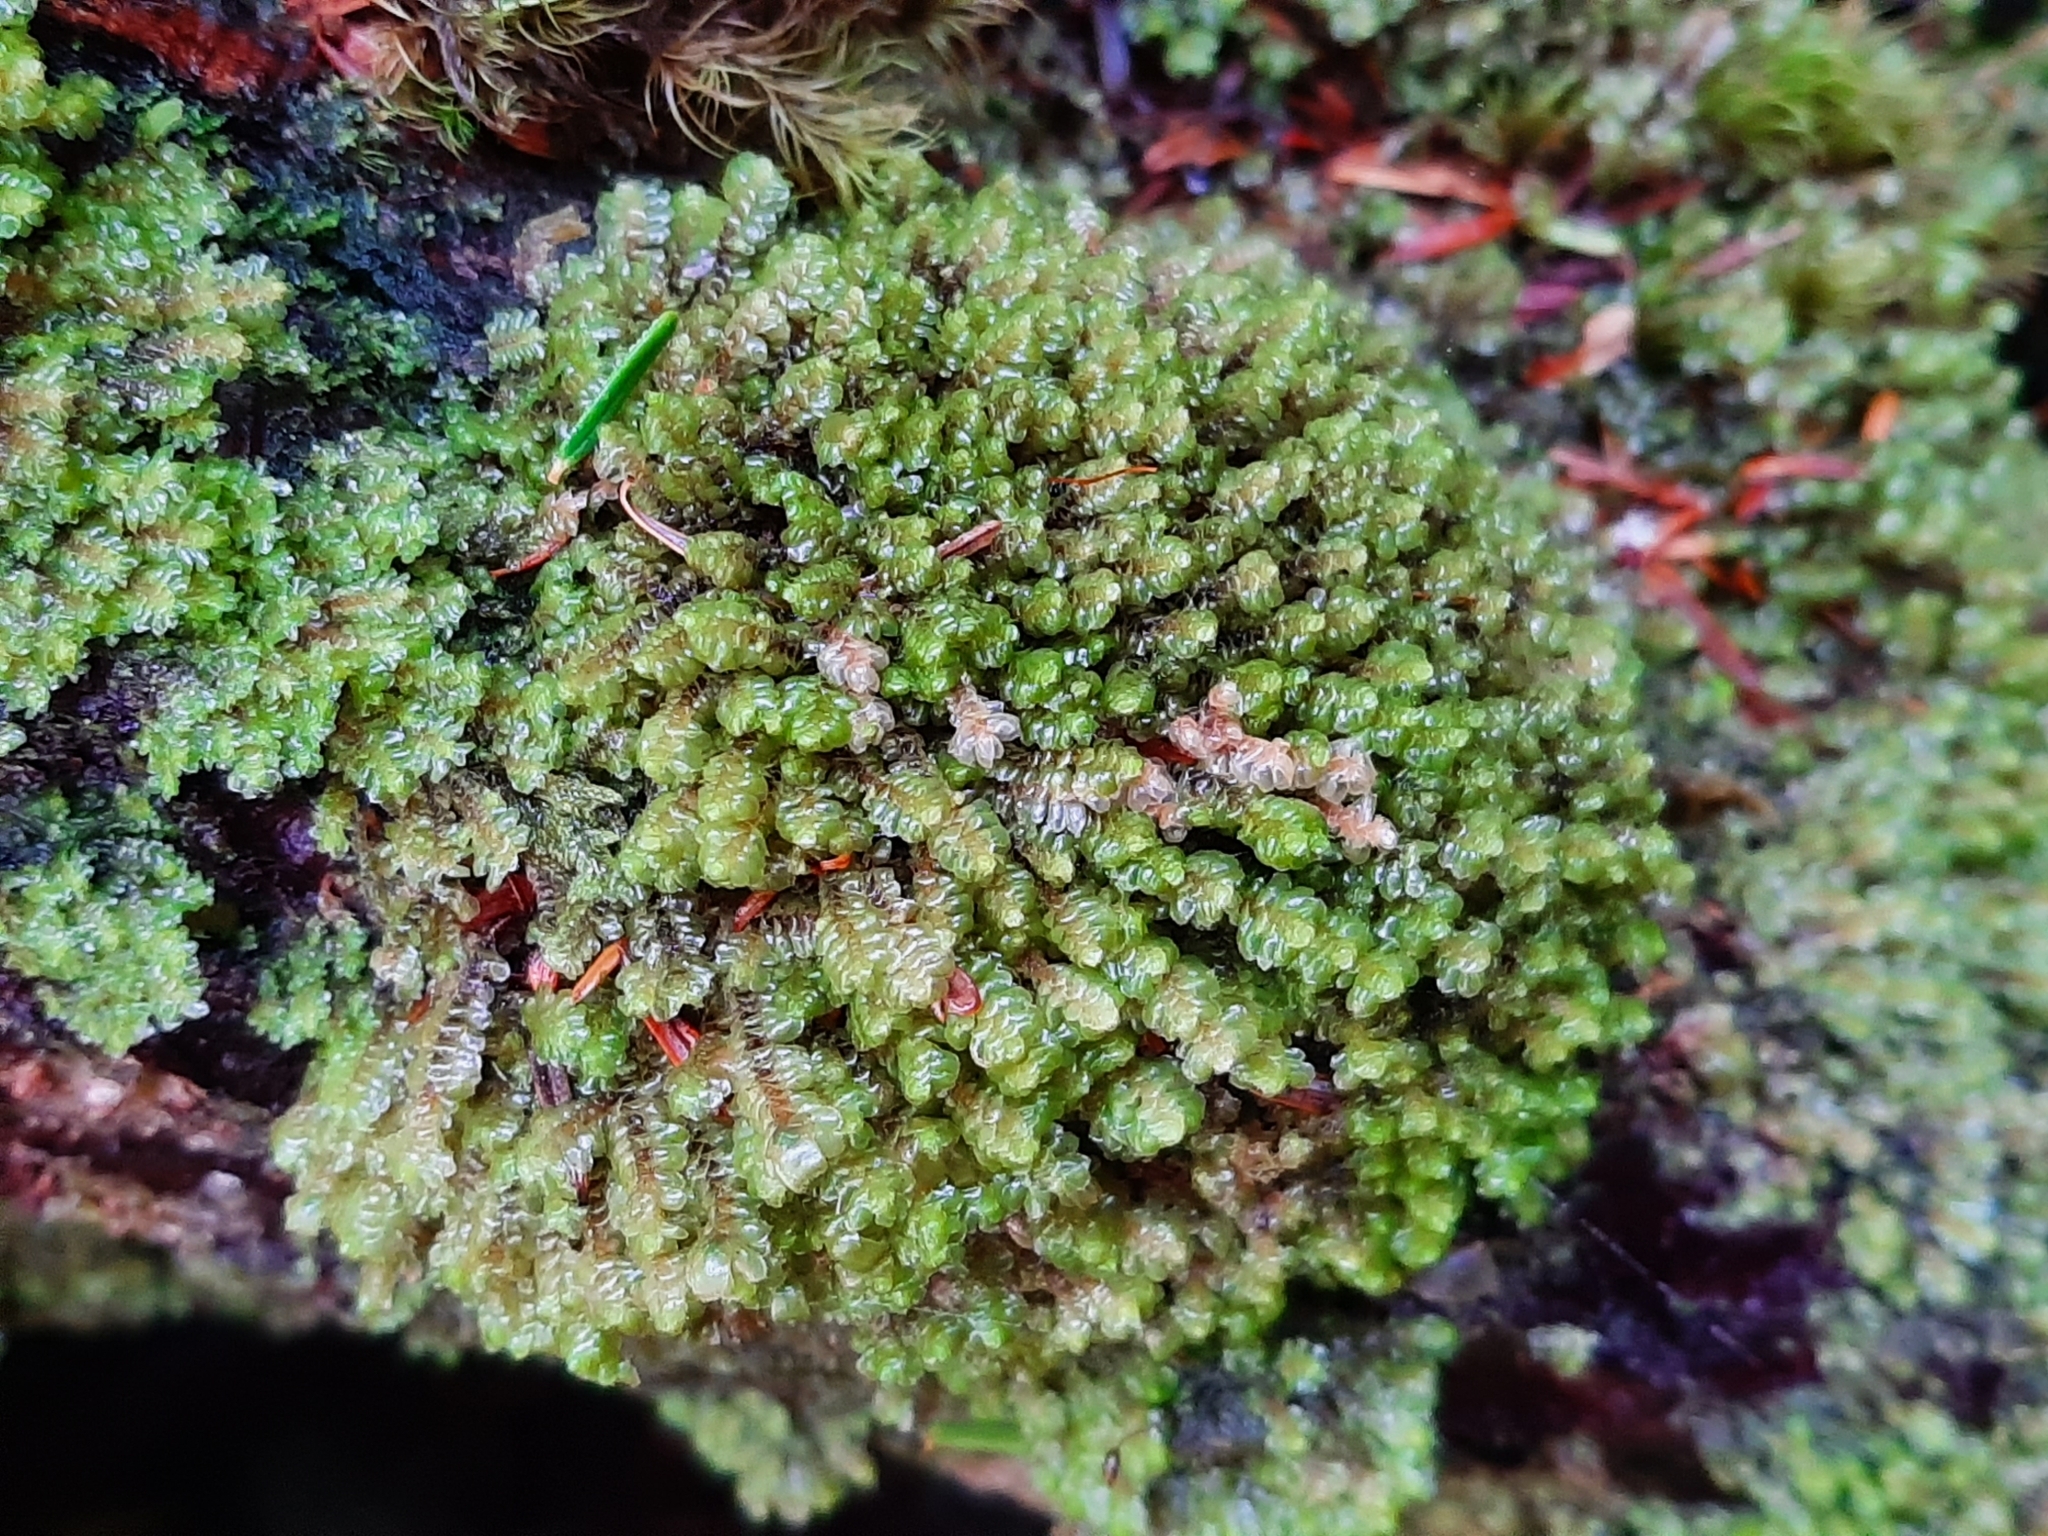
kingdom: Plantae
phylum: Marchantiophyta
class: Jungermanniopsida
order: Jungermanniales
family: Scapaniaceae
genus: Scapania
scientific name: Scapania bolanderi
